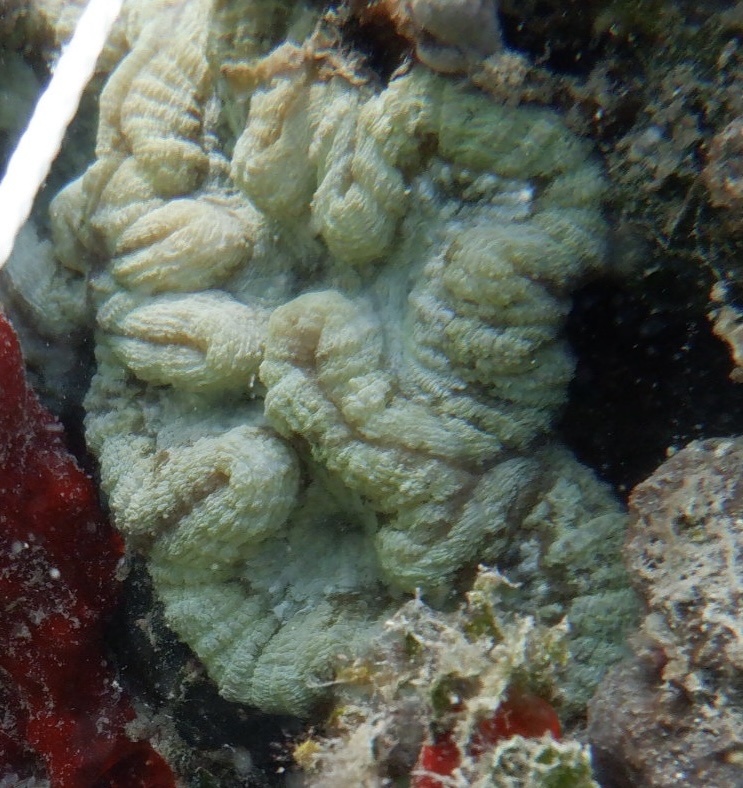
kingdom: Animalia
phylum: Cnidaria
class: Anthozoa
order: Scleractinia
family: Faviidae
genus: Isophyllia
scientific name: Isophyllia sinuosa
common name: Sinuous cactus coral
